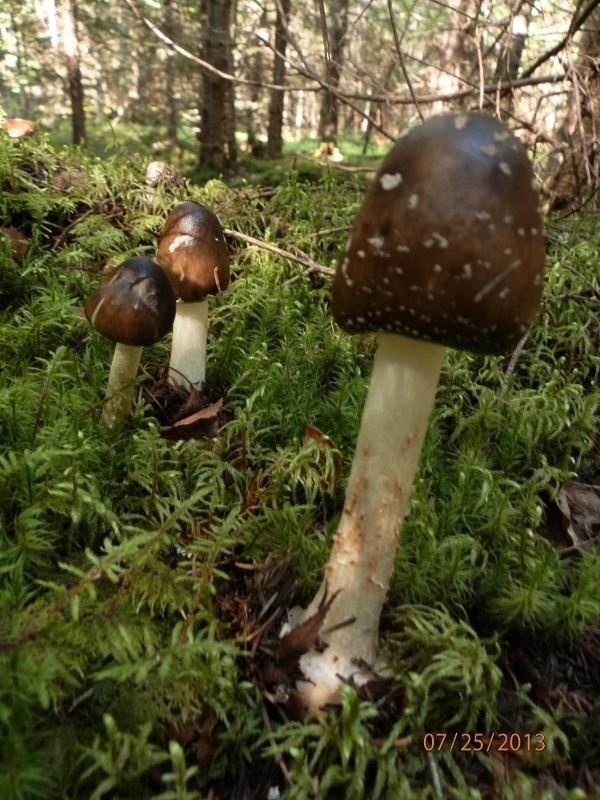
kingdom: Fungi
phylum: Basidiomycota
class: Agaricomycetes
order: Agaricales
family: Amanitaceae
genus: Amanita
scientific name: Amanita brunnescens
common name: Brown american star-footed amanita
